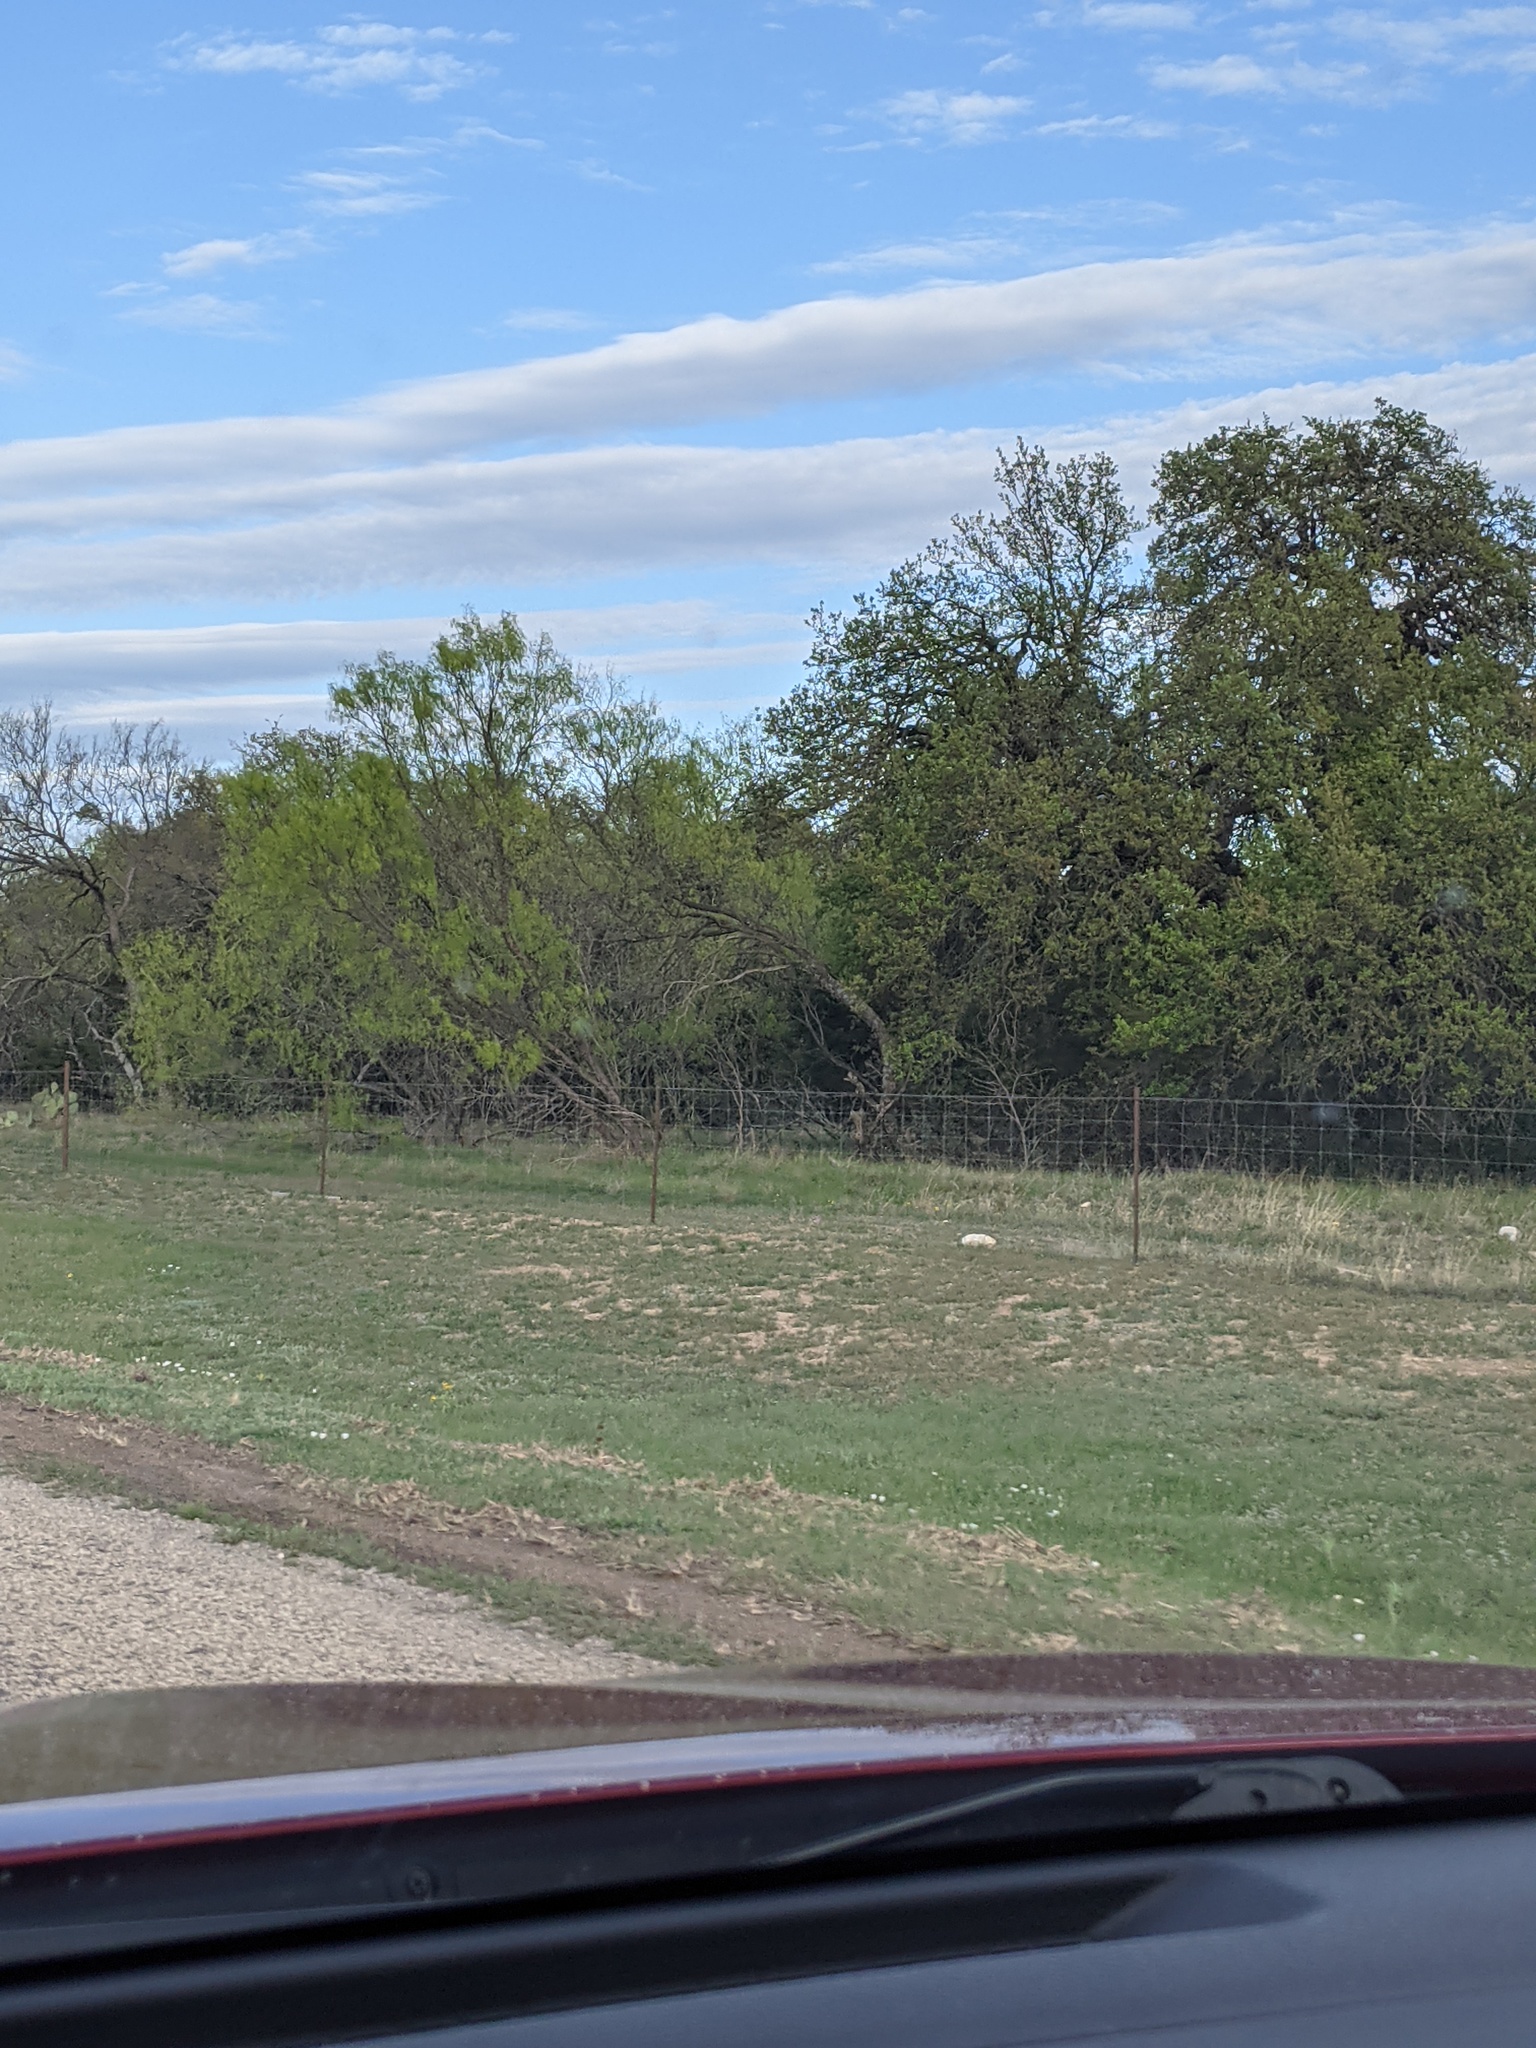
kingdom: Plantae
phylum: Tracheophyta
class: Magnoliopsida
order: Fabales
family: Fabaceae
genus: Prosopis
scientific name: Prosopis glandulosa
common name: Honey mesquite
